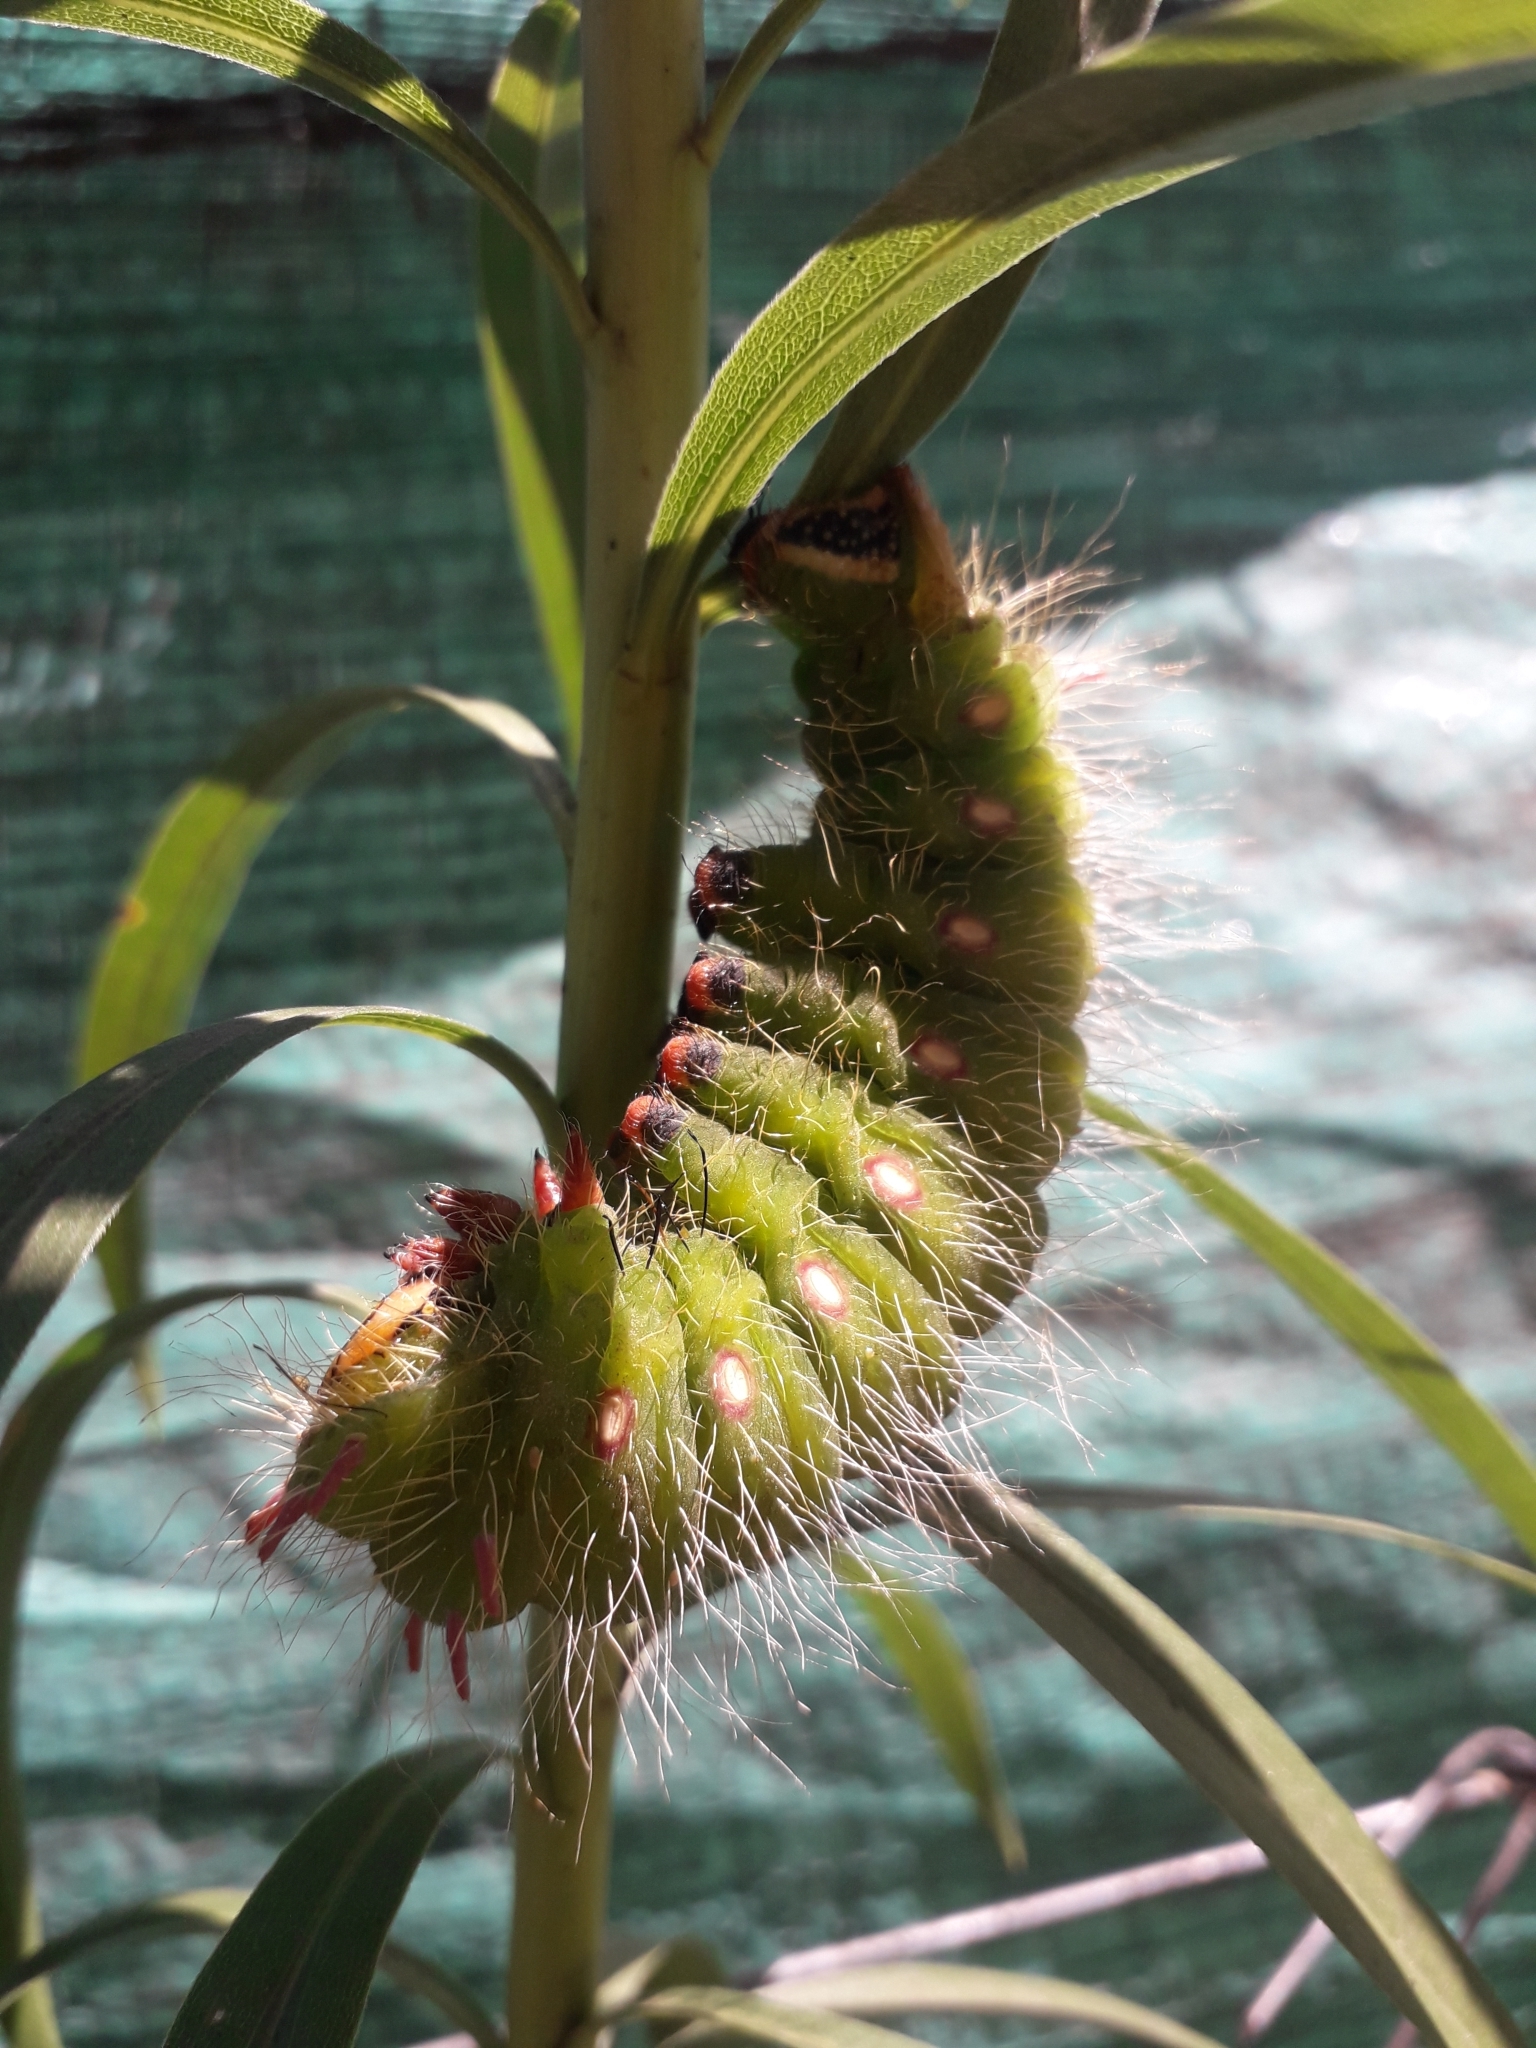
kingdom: Animalia
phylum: Arthropoda
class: Insecta
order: Lepidoptera
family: Saturniidae
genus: Eacles
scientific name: Eacles imperialis
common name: Imperial moth
